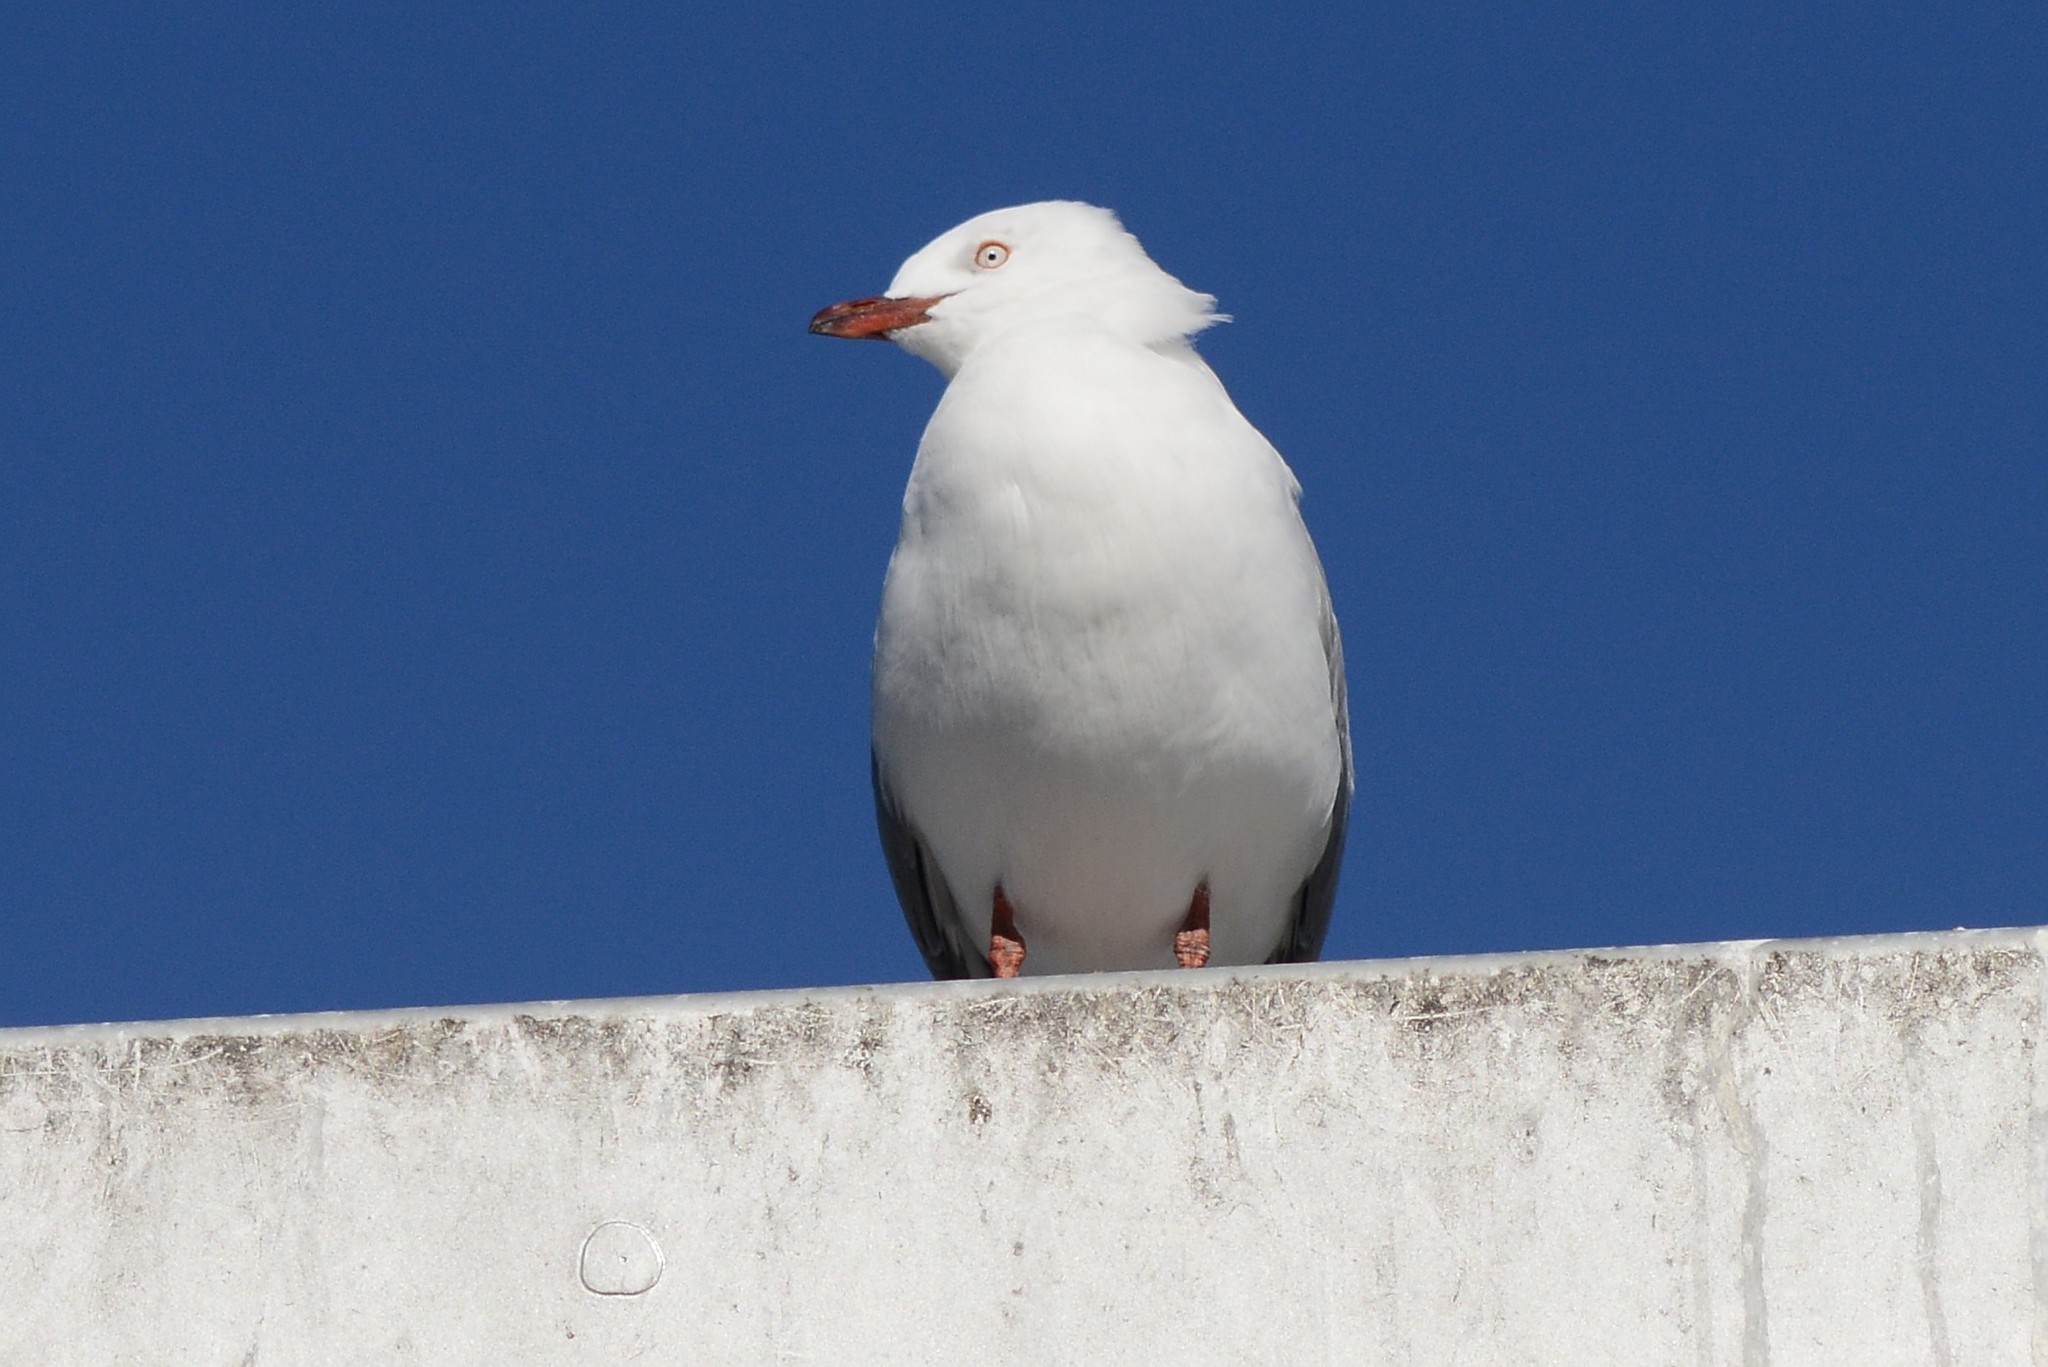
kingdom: Animalia
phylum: Chordata
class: Aves
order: Charadriiformes
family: Laridae
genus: Chroicocephalus
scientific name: Chroicocephalus novaehollandiae
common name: Silver gull
